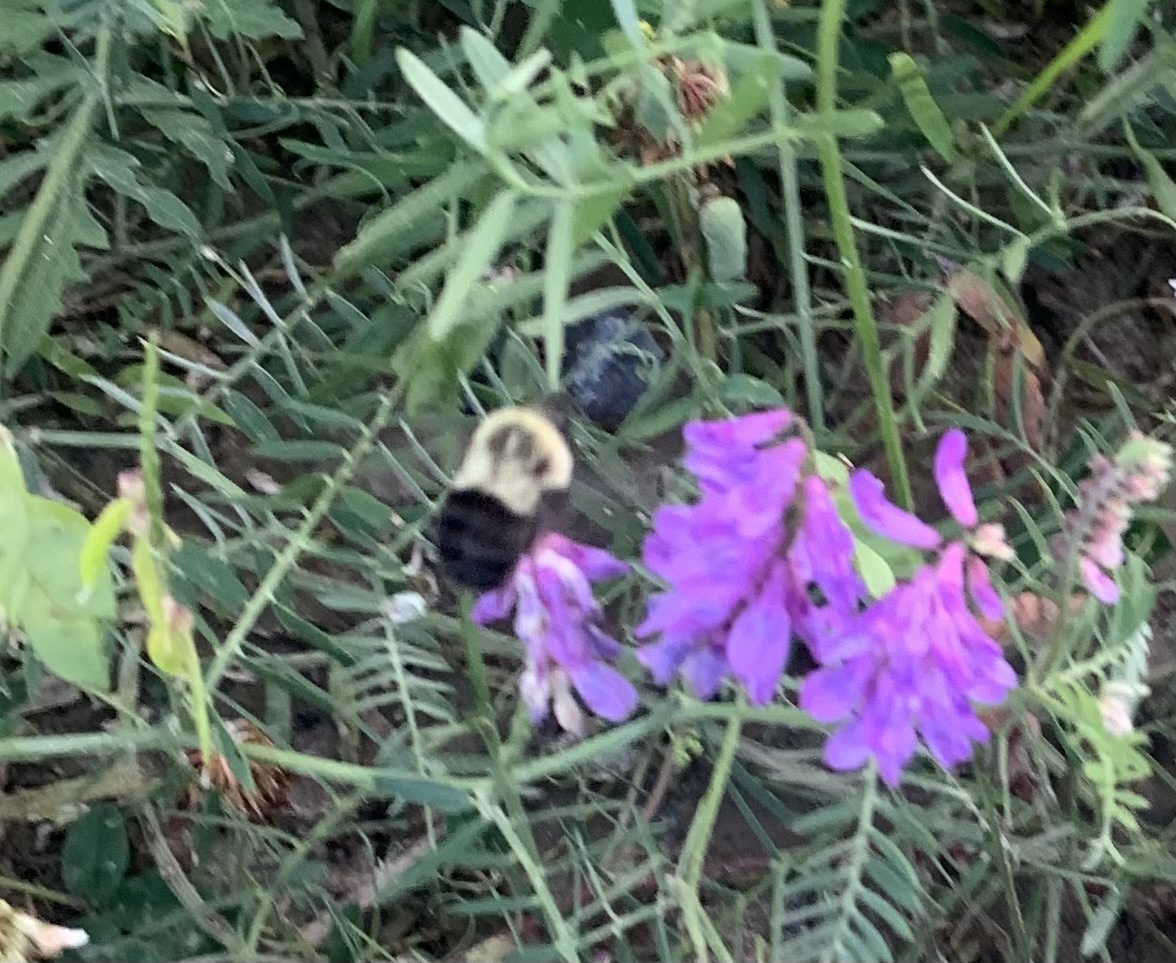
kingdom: Animalia
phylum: Arthropoda
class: Insecta
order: Hymenoptera
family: Apidae
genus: Bombus
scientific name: Bombus impatiens
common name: Common eastern bumble bee
